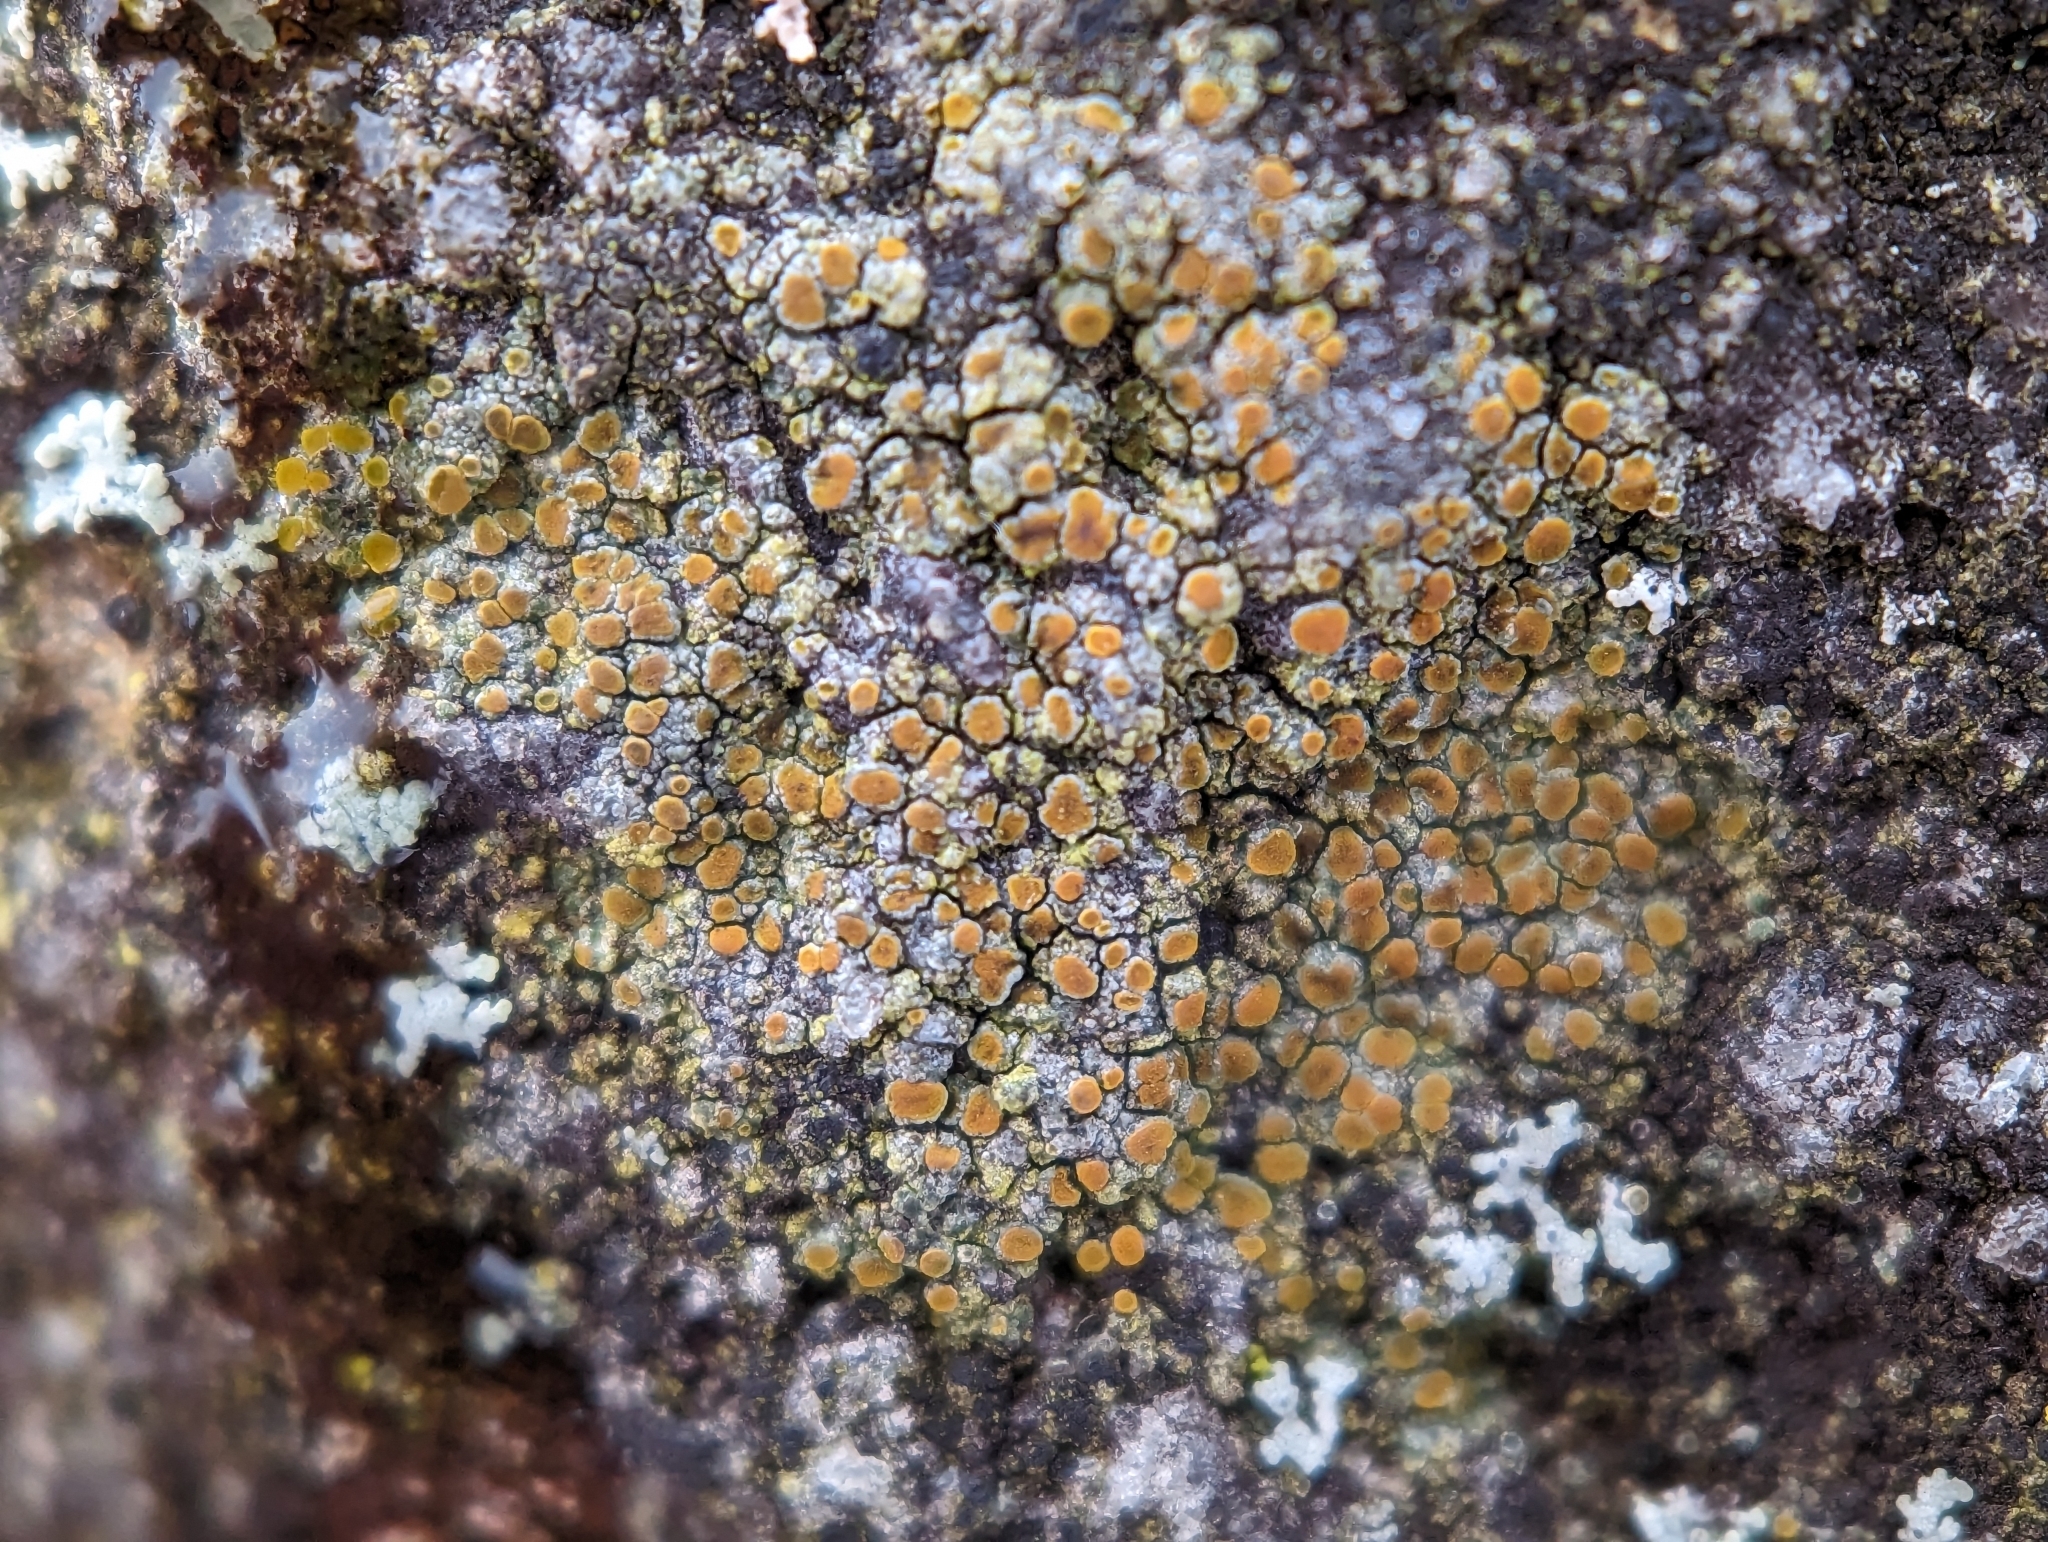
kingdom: Fungi
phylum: Ascomycota
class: Lecanoromycetes
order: Teloschistales
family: Teloschistaceae
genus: Gyalolechia
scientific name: Gyalolechia flavovirescens
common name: Sulphur firedot
